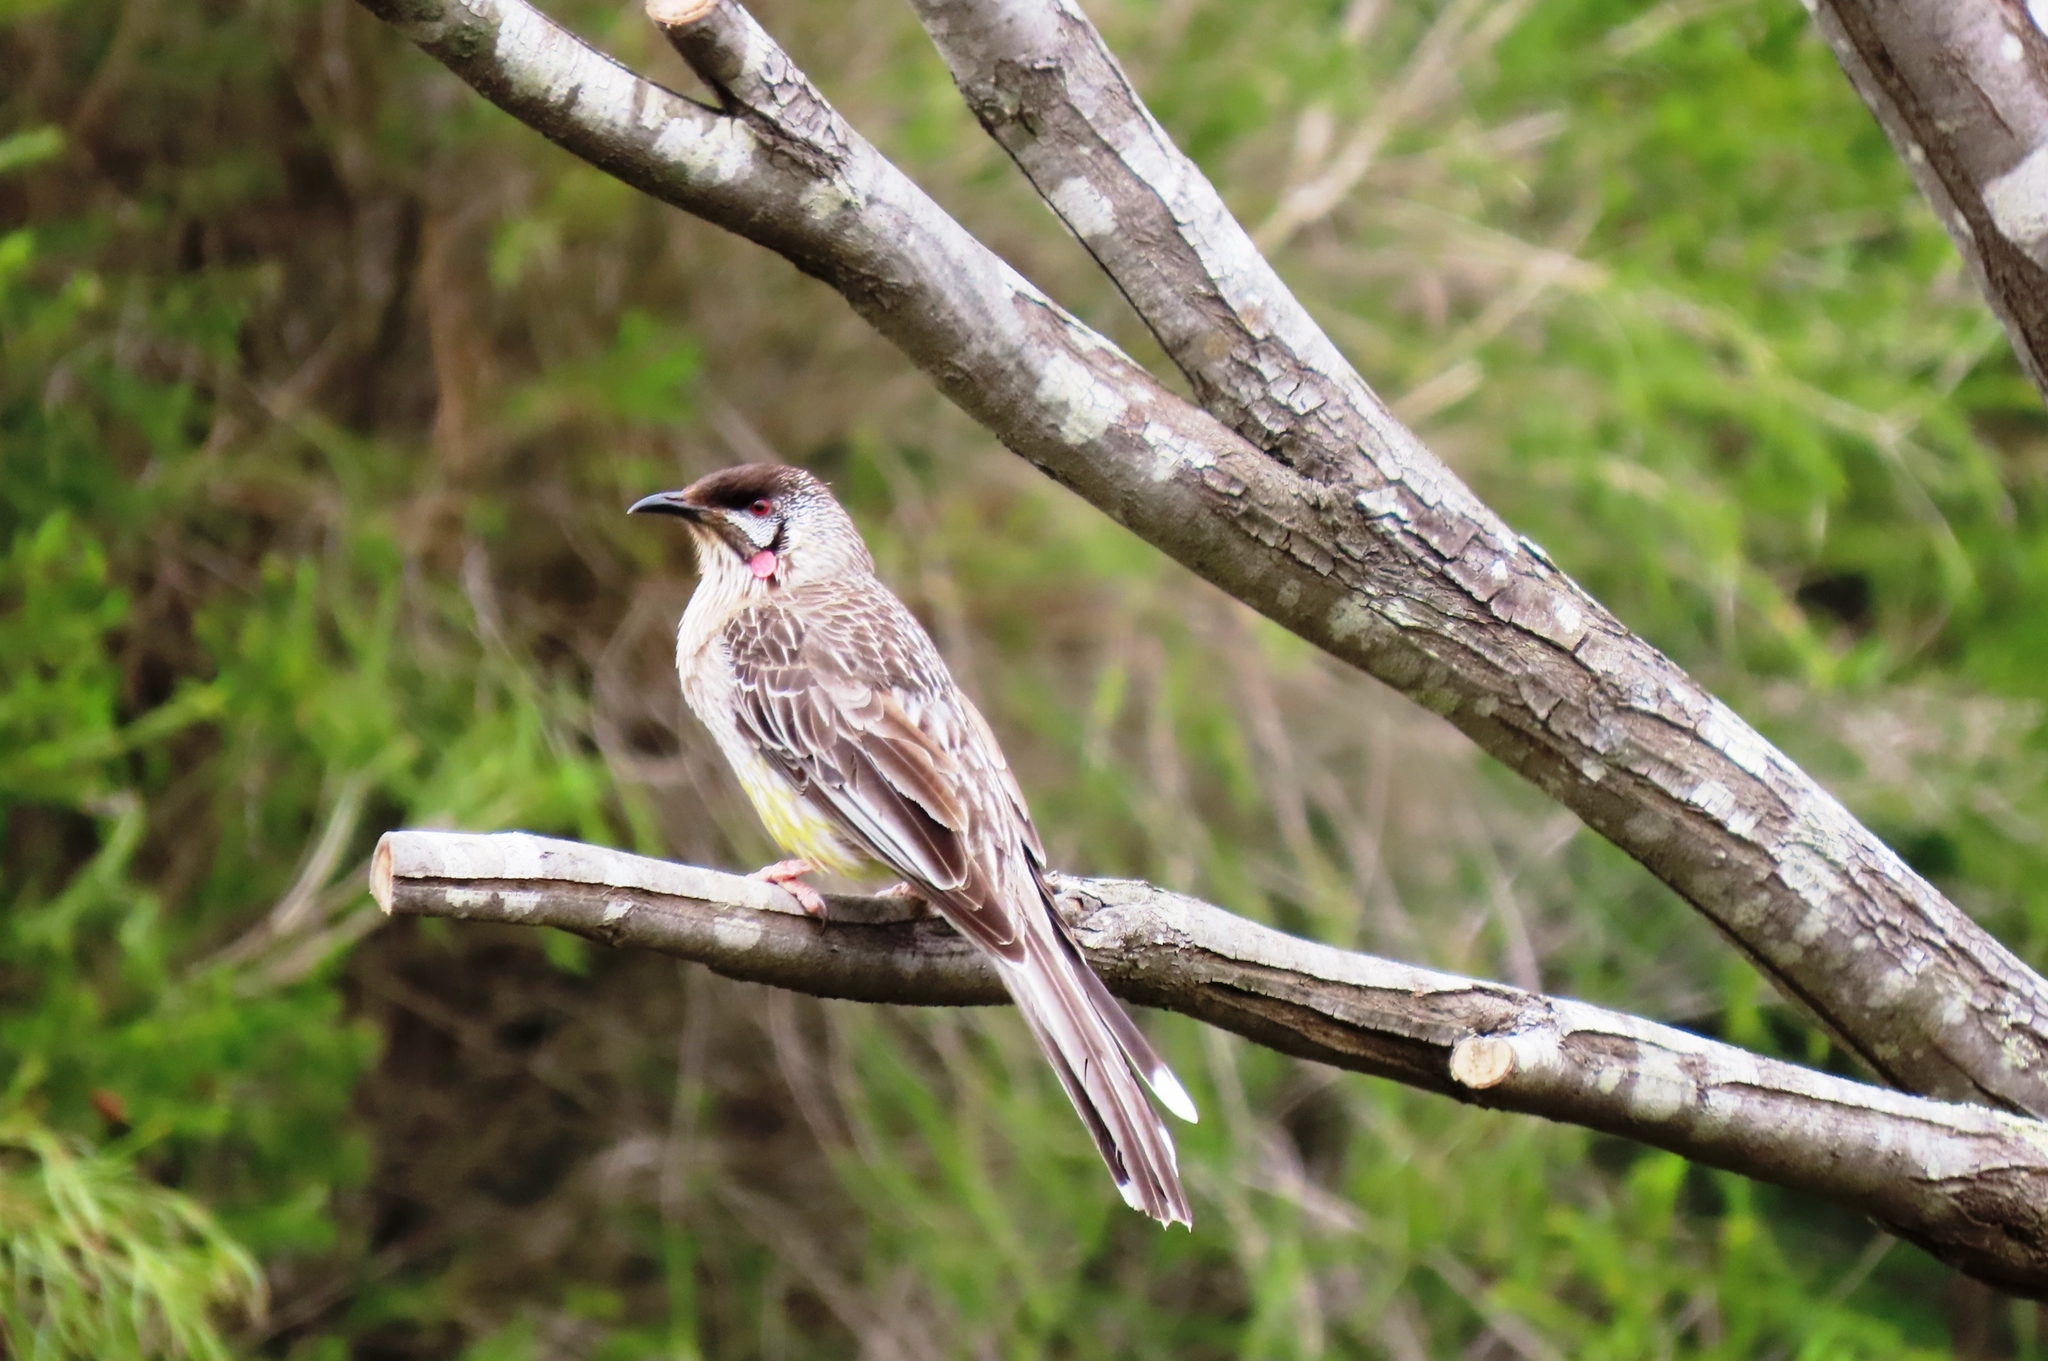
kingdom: Animalia
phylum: Chordata
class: Aves
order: Passeriformes
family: Meliphagidae
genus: Anthochaera
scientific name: Anthochaera carunculata
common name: Red wattlebird
